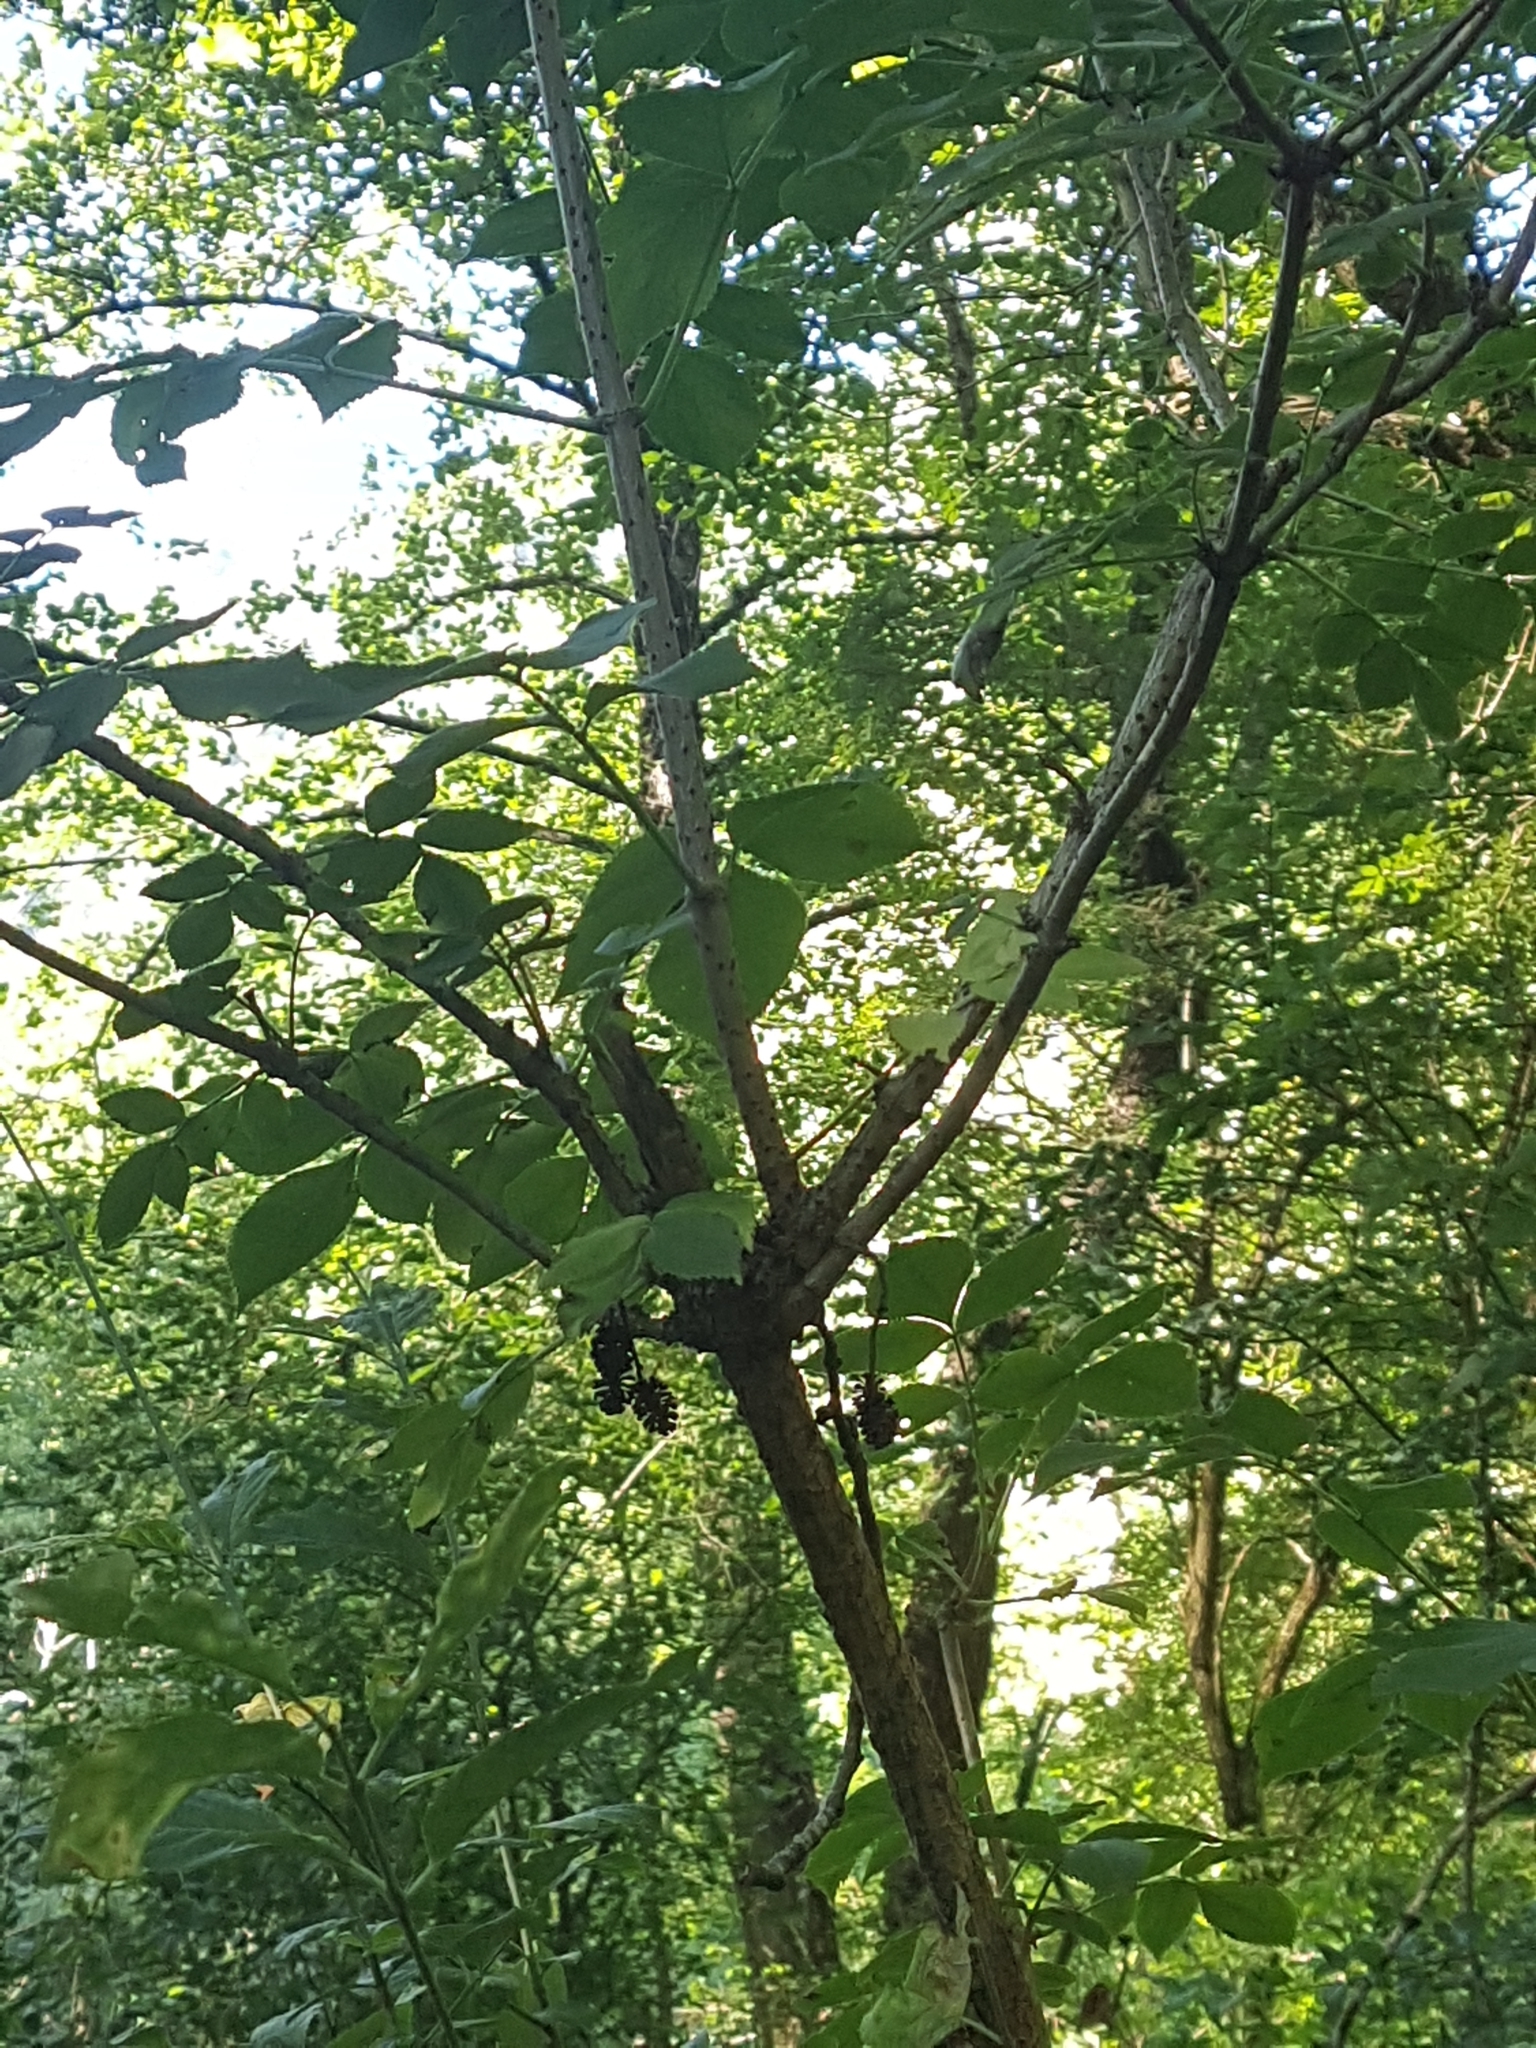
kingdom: Plantae
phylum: Tracheophyta
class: Magnoliopsida
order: Dipsacales
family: Viburnaceae
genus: Sambucus
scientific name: Sambucus nigra
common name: Elder
